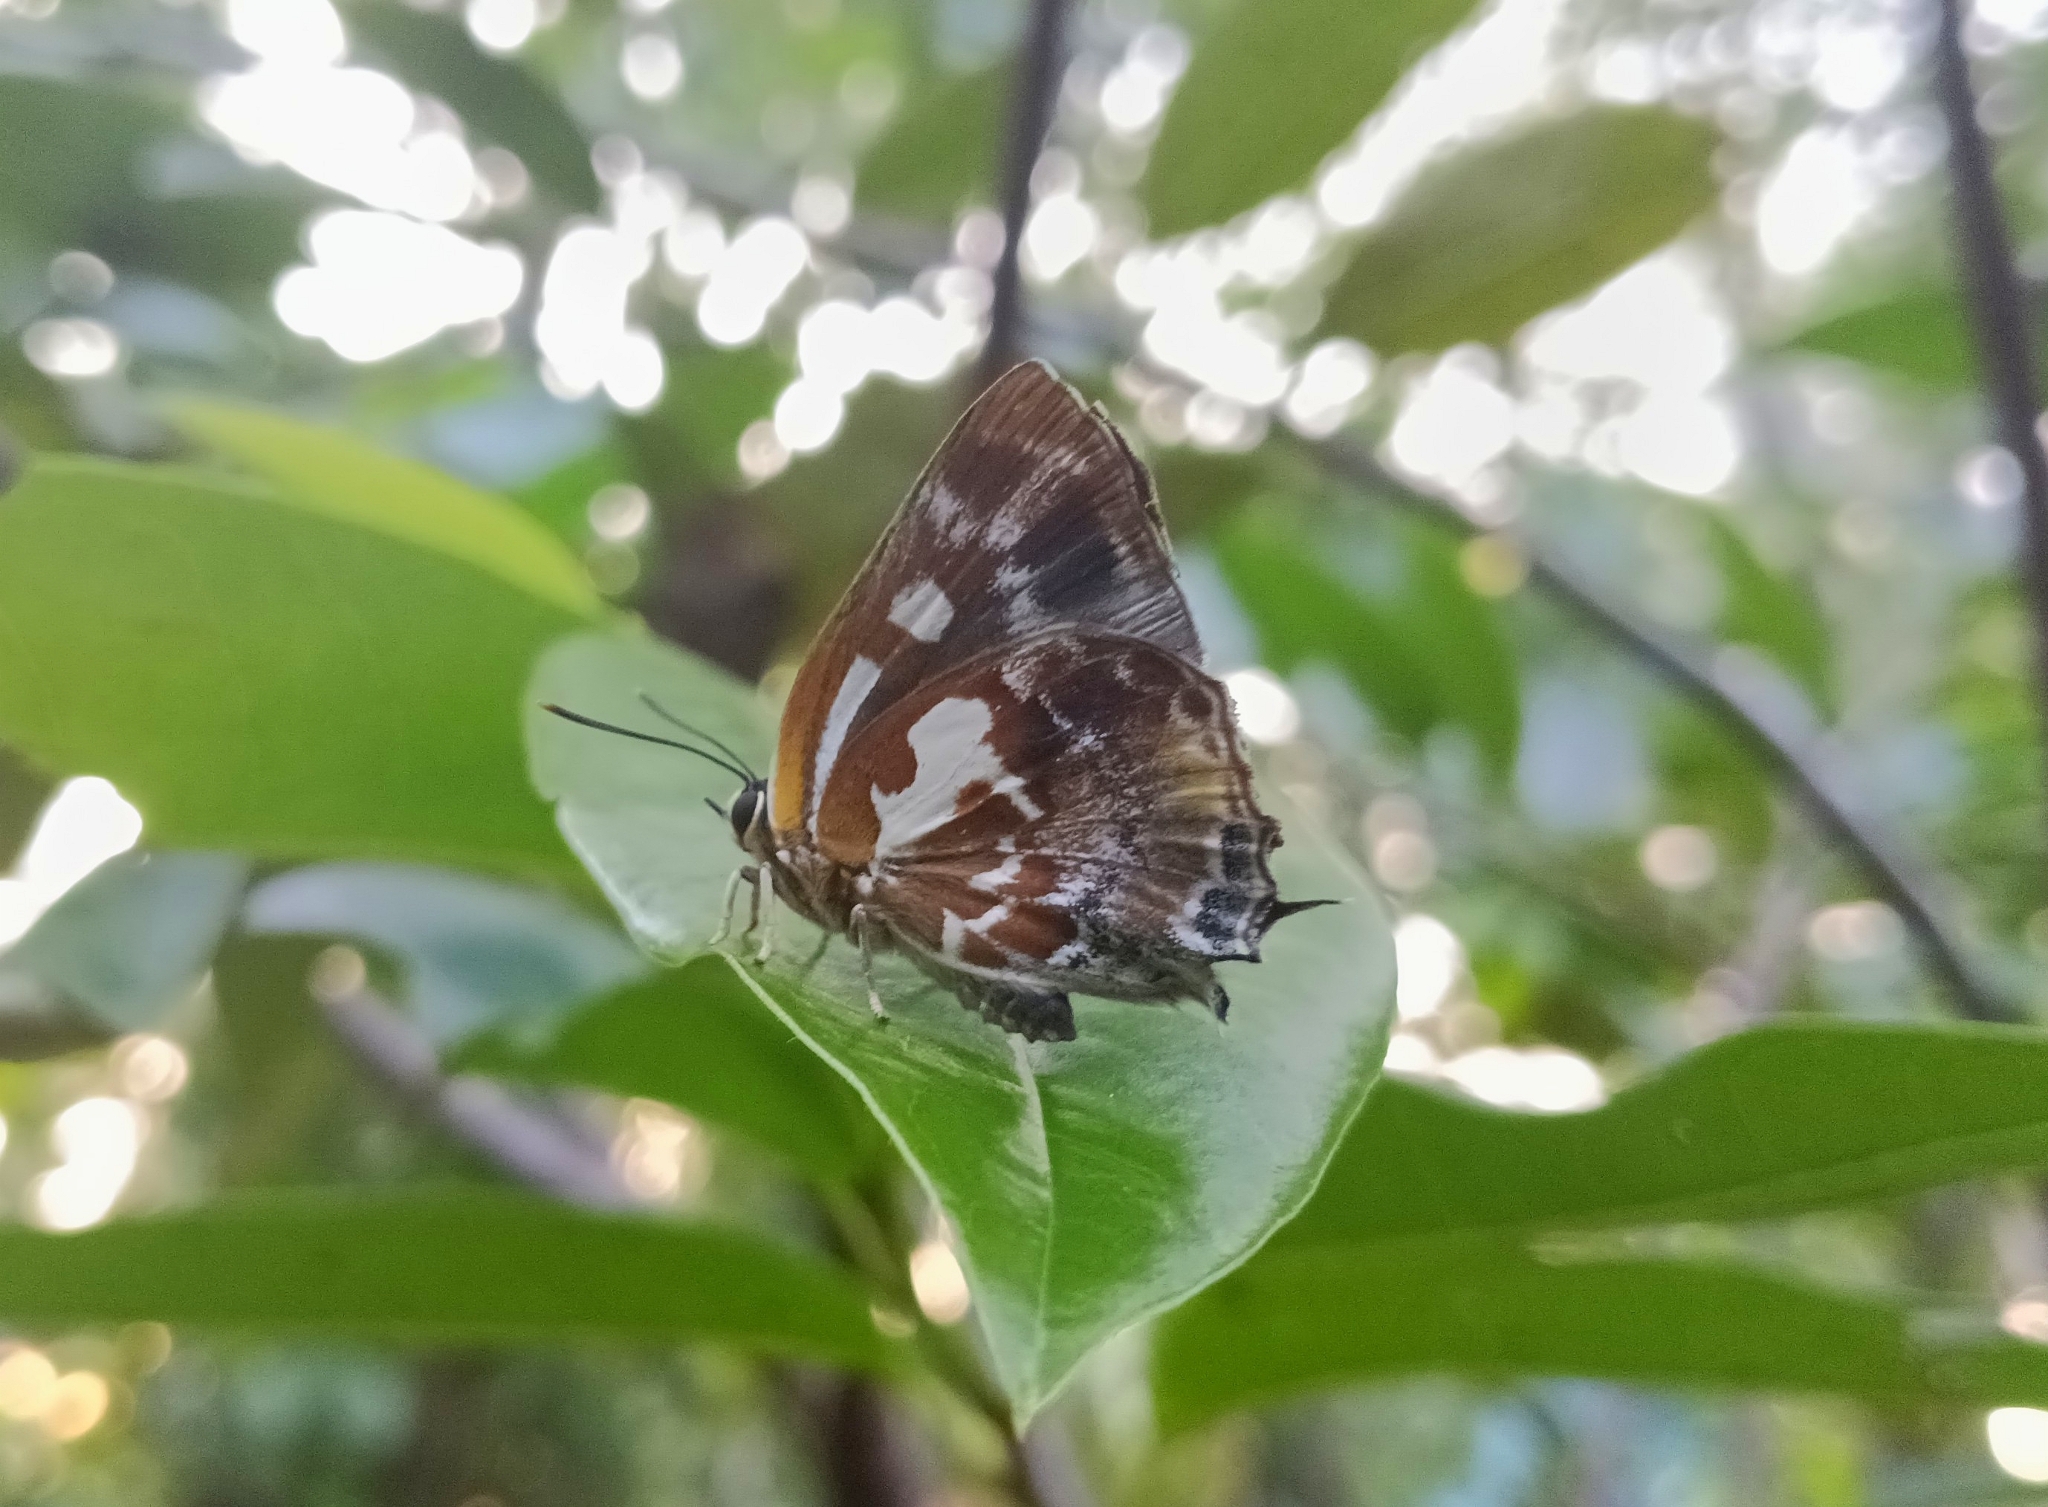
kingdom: Animalia
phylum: Arthropoda
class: Insecta
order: Lepidoptera
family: Lycaenidae
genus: Iraota
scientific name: Iraota timoleon
